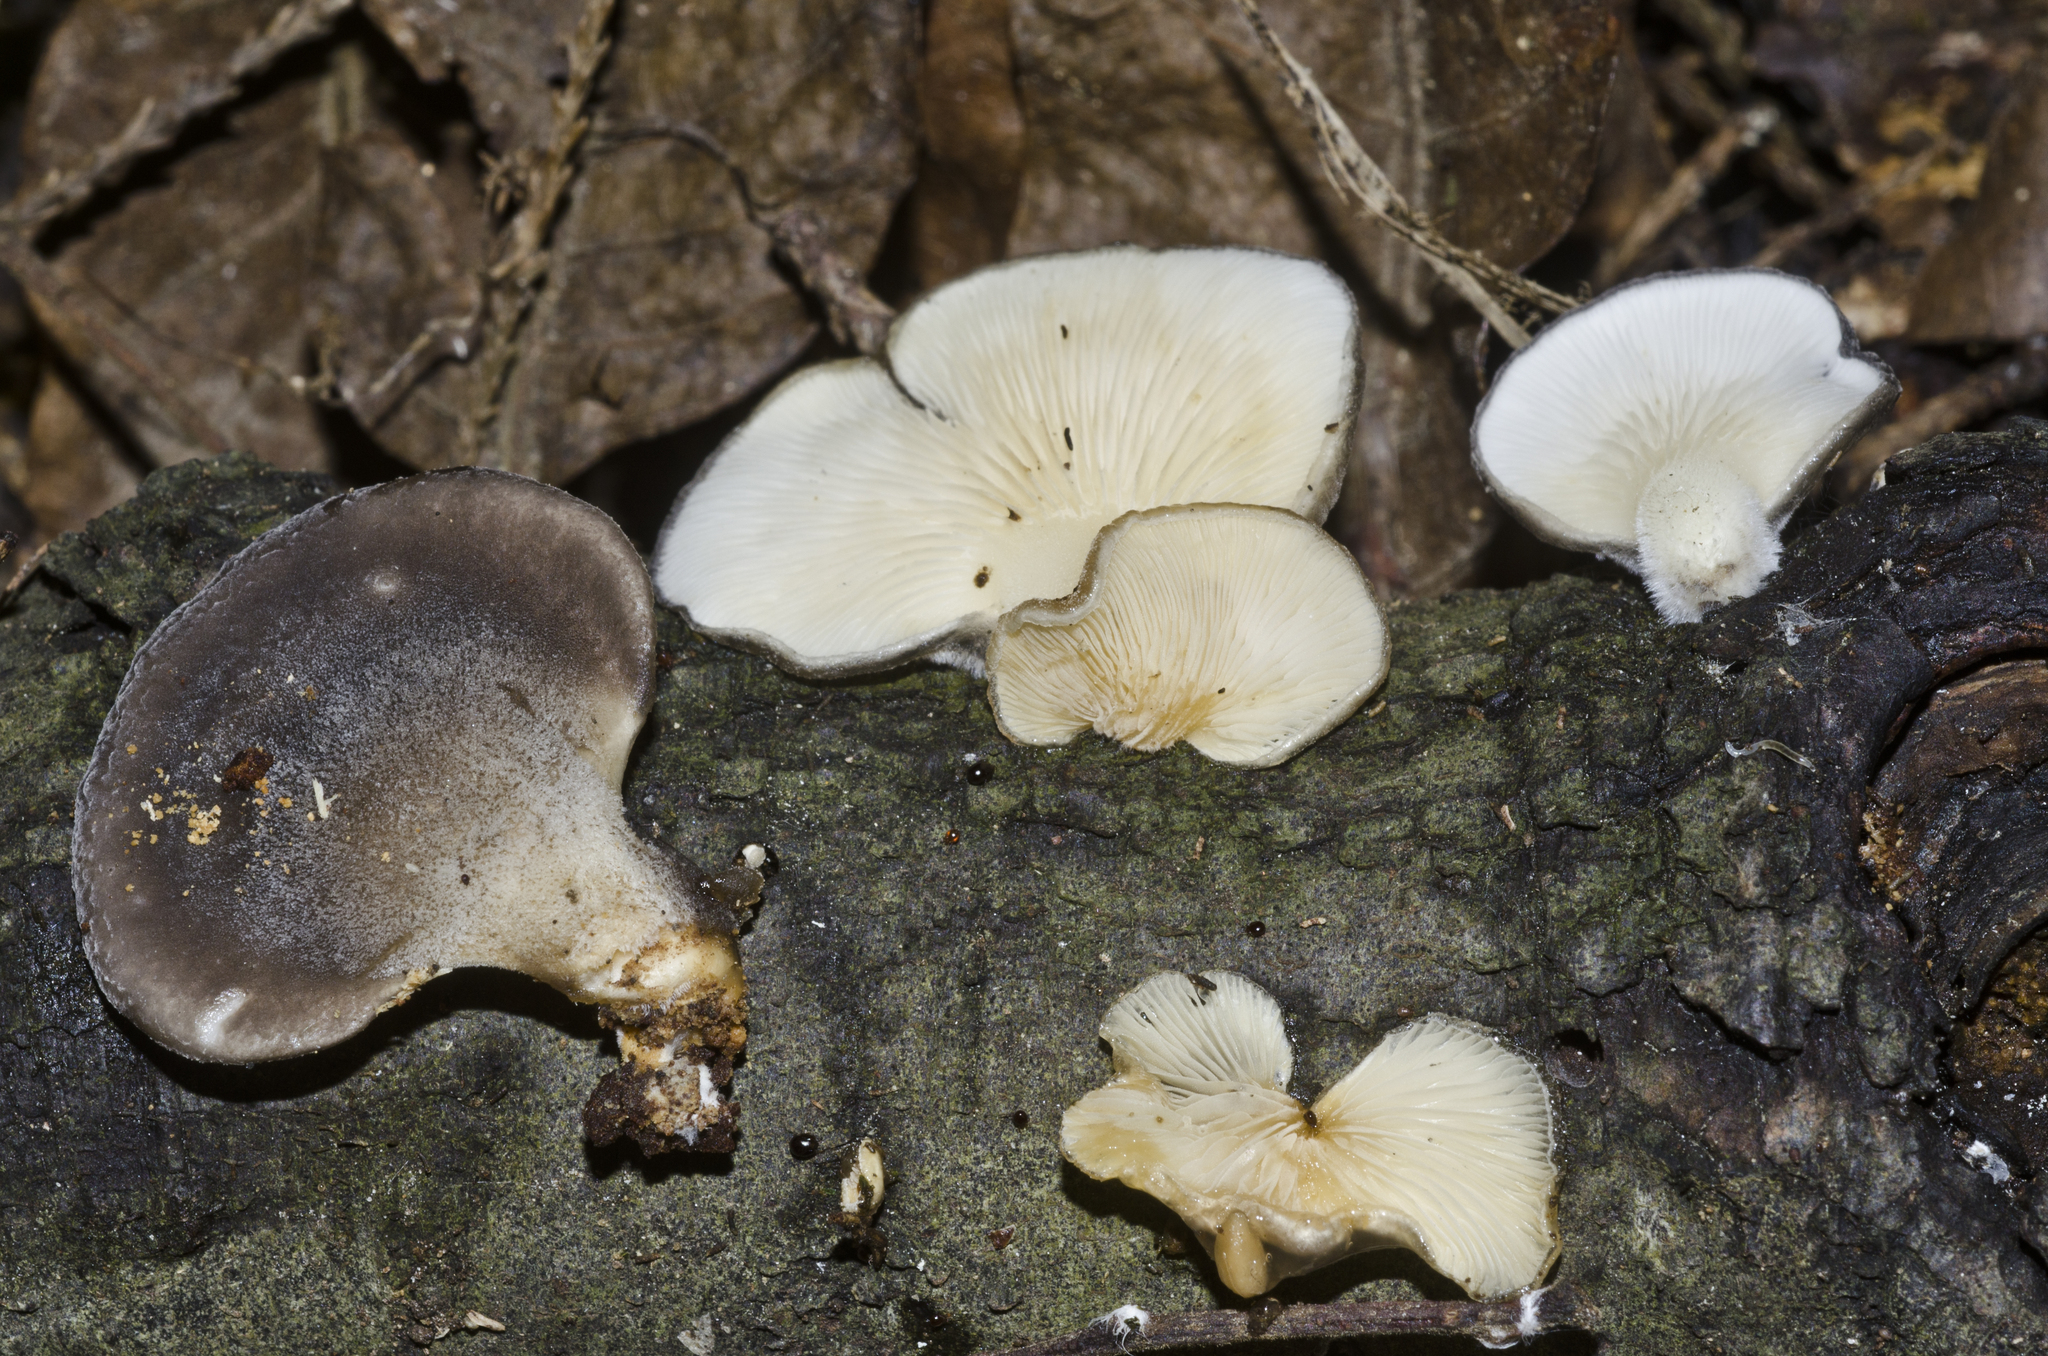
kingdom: Fungi
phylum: Basidiomycota
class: Agaricomycetes
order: Agaricales
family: Pleurotaceae
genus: Hohenbuehelia
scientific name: Hohenbuehelia nothofaginea
